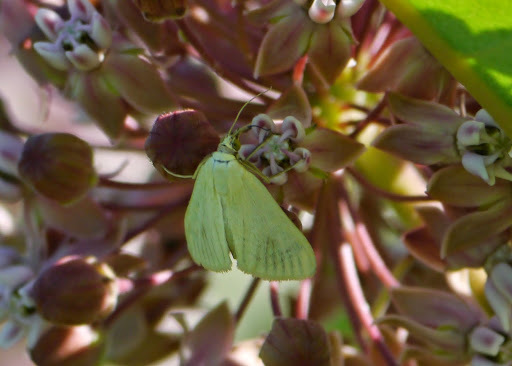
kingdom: Animalia
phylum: Arthropoda
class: Insecta
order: Lepidoptera
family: Crambidae
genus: Sitochroa
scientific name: Sitochroa palealis
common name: Greenish-yellow sitochroa moth
